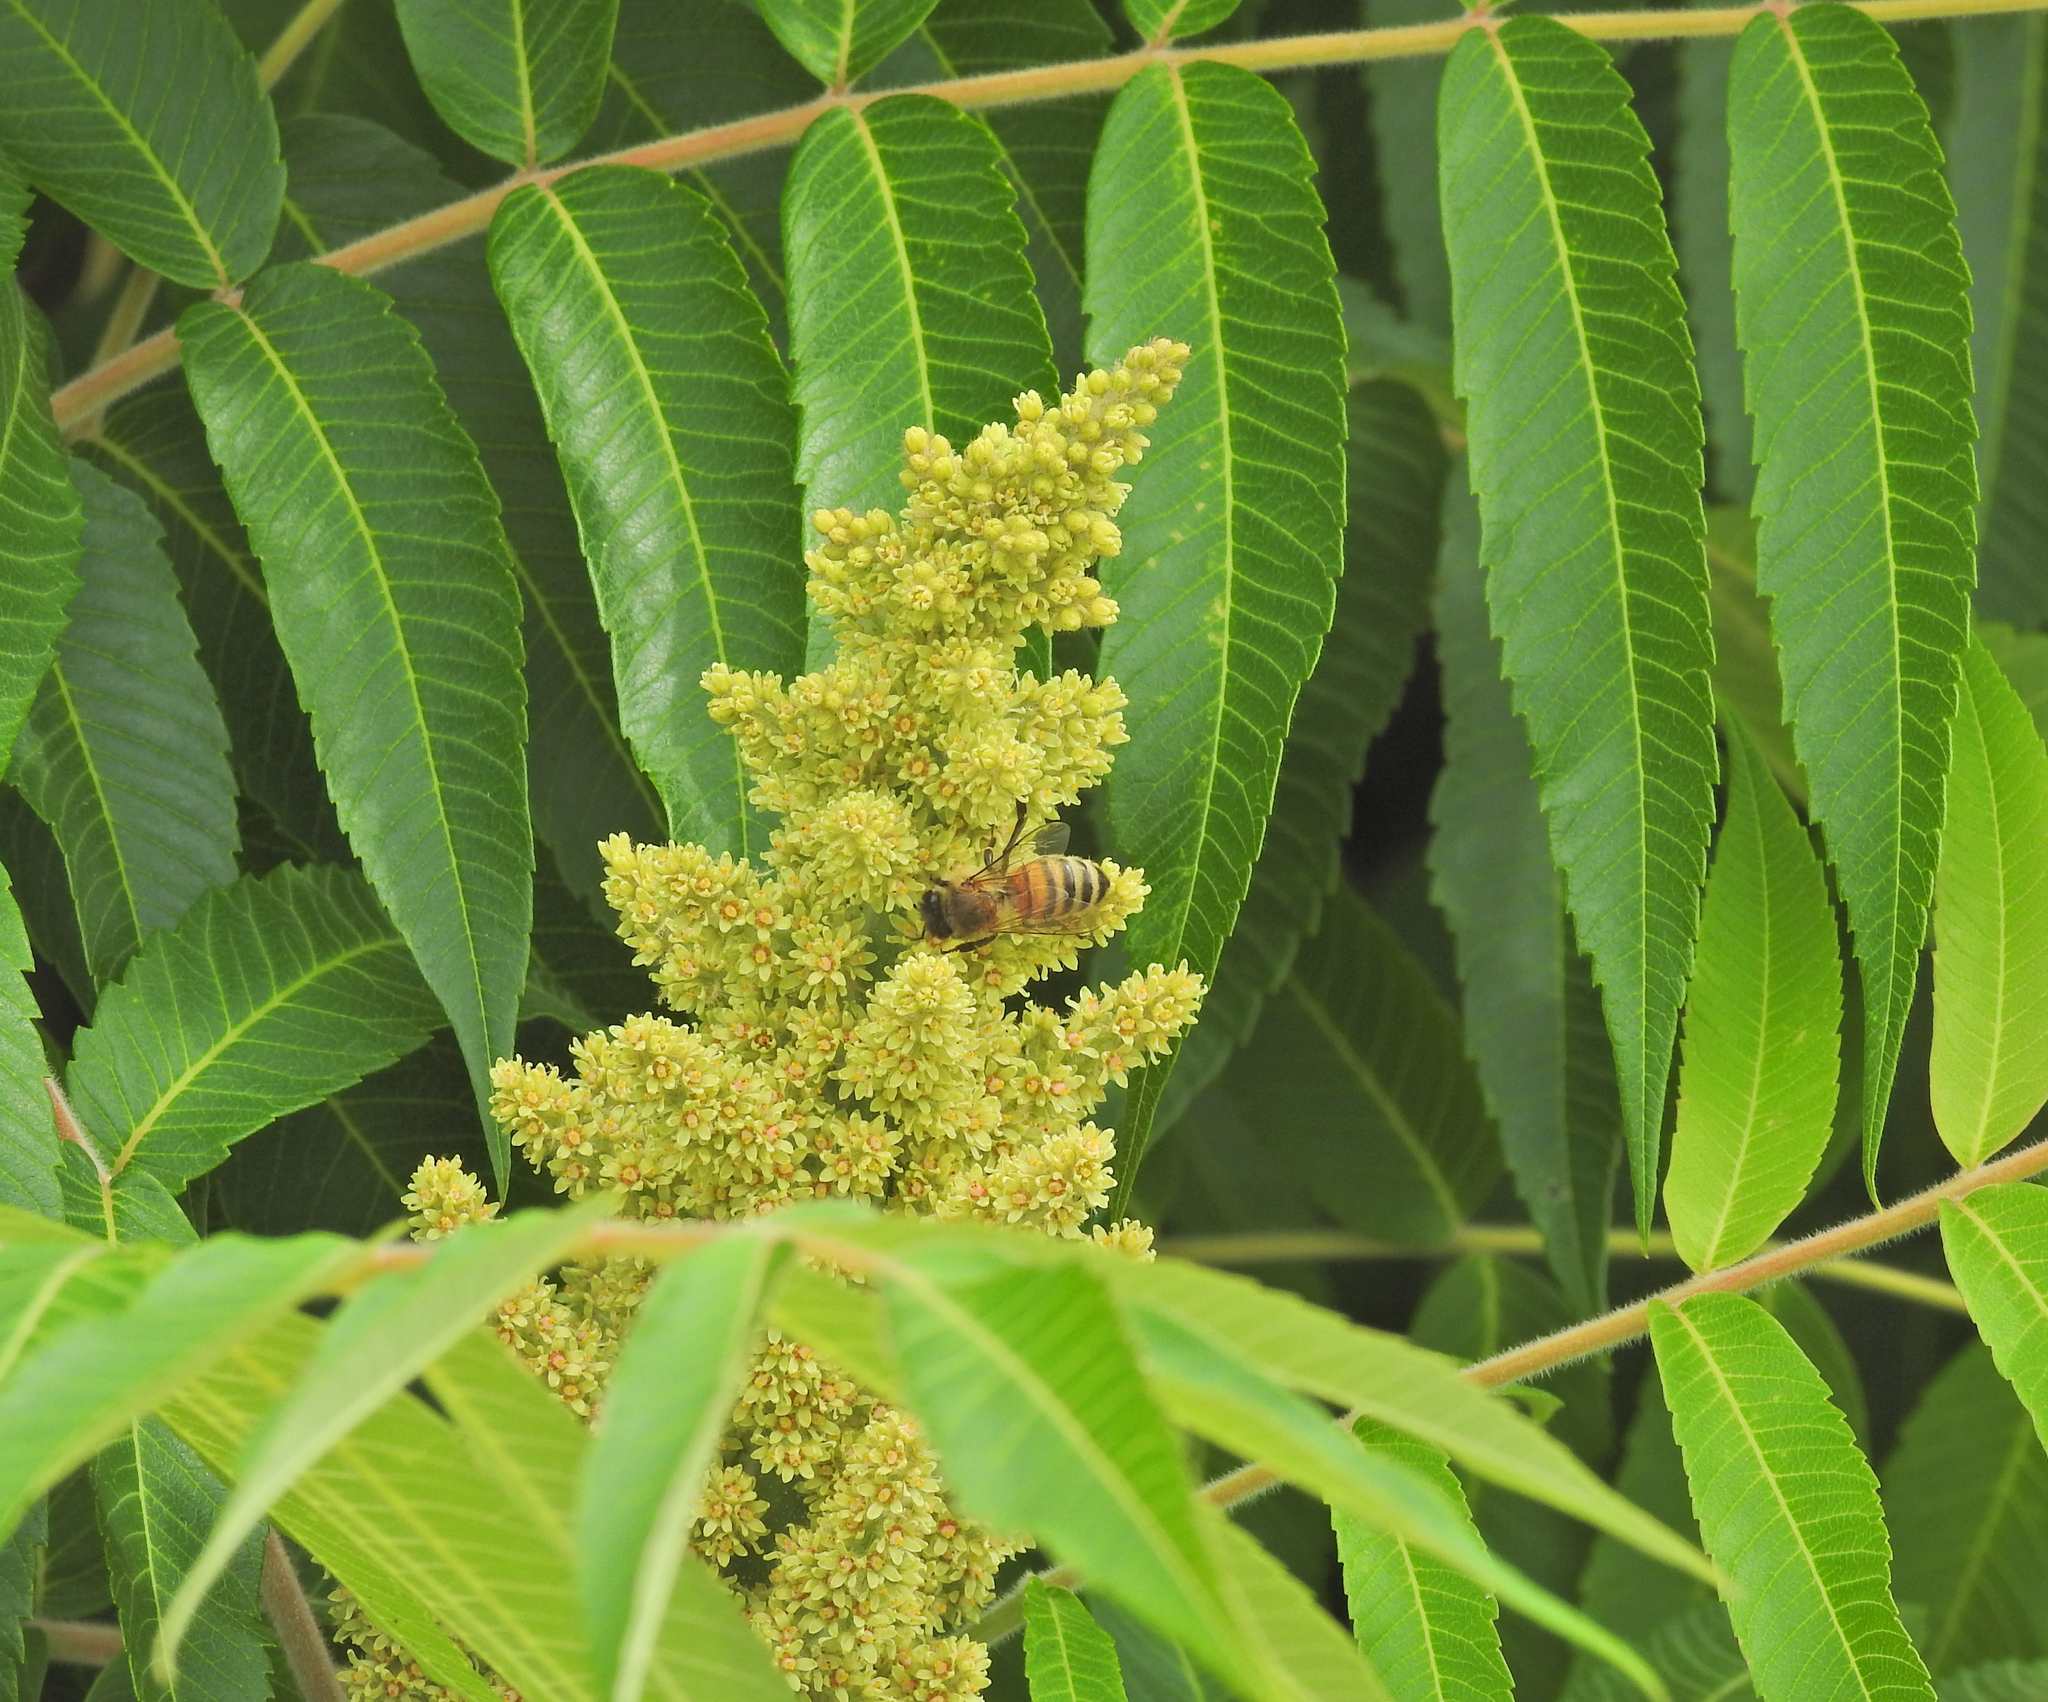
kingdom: Animalia
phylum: Arthropoda
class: Insecta
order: Hymenoptera
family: Apidae
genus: Apis
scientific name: Apis mellifera
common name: Honey bee
